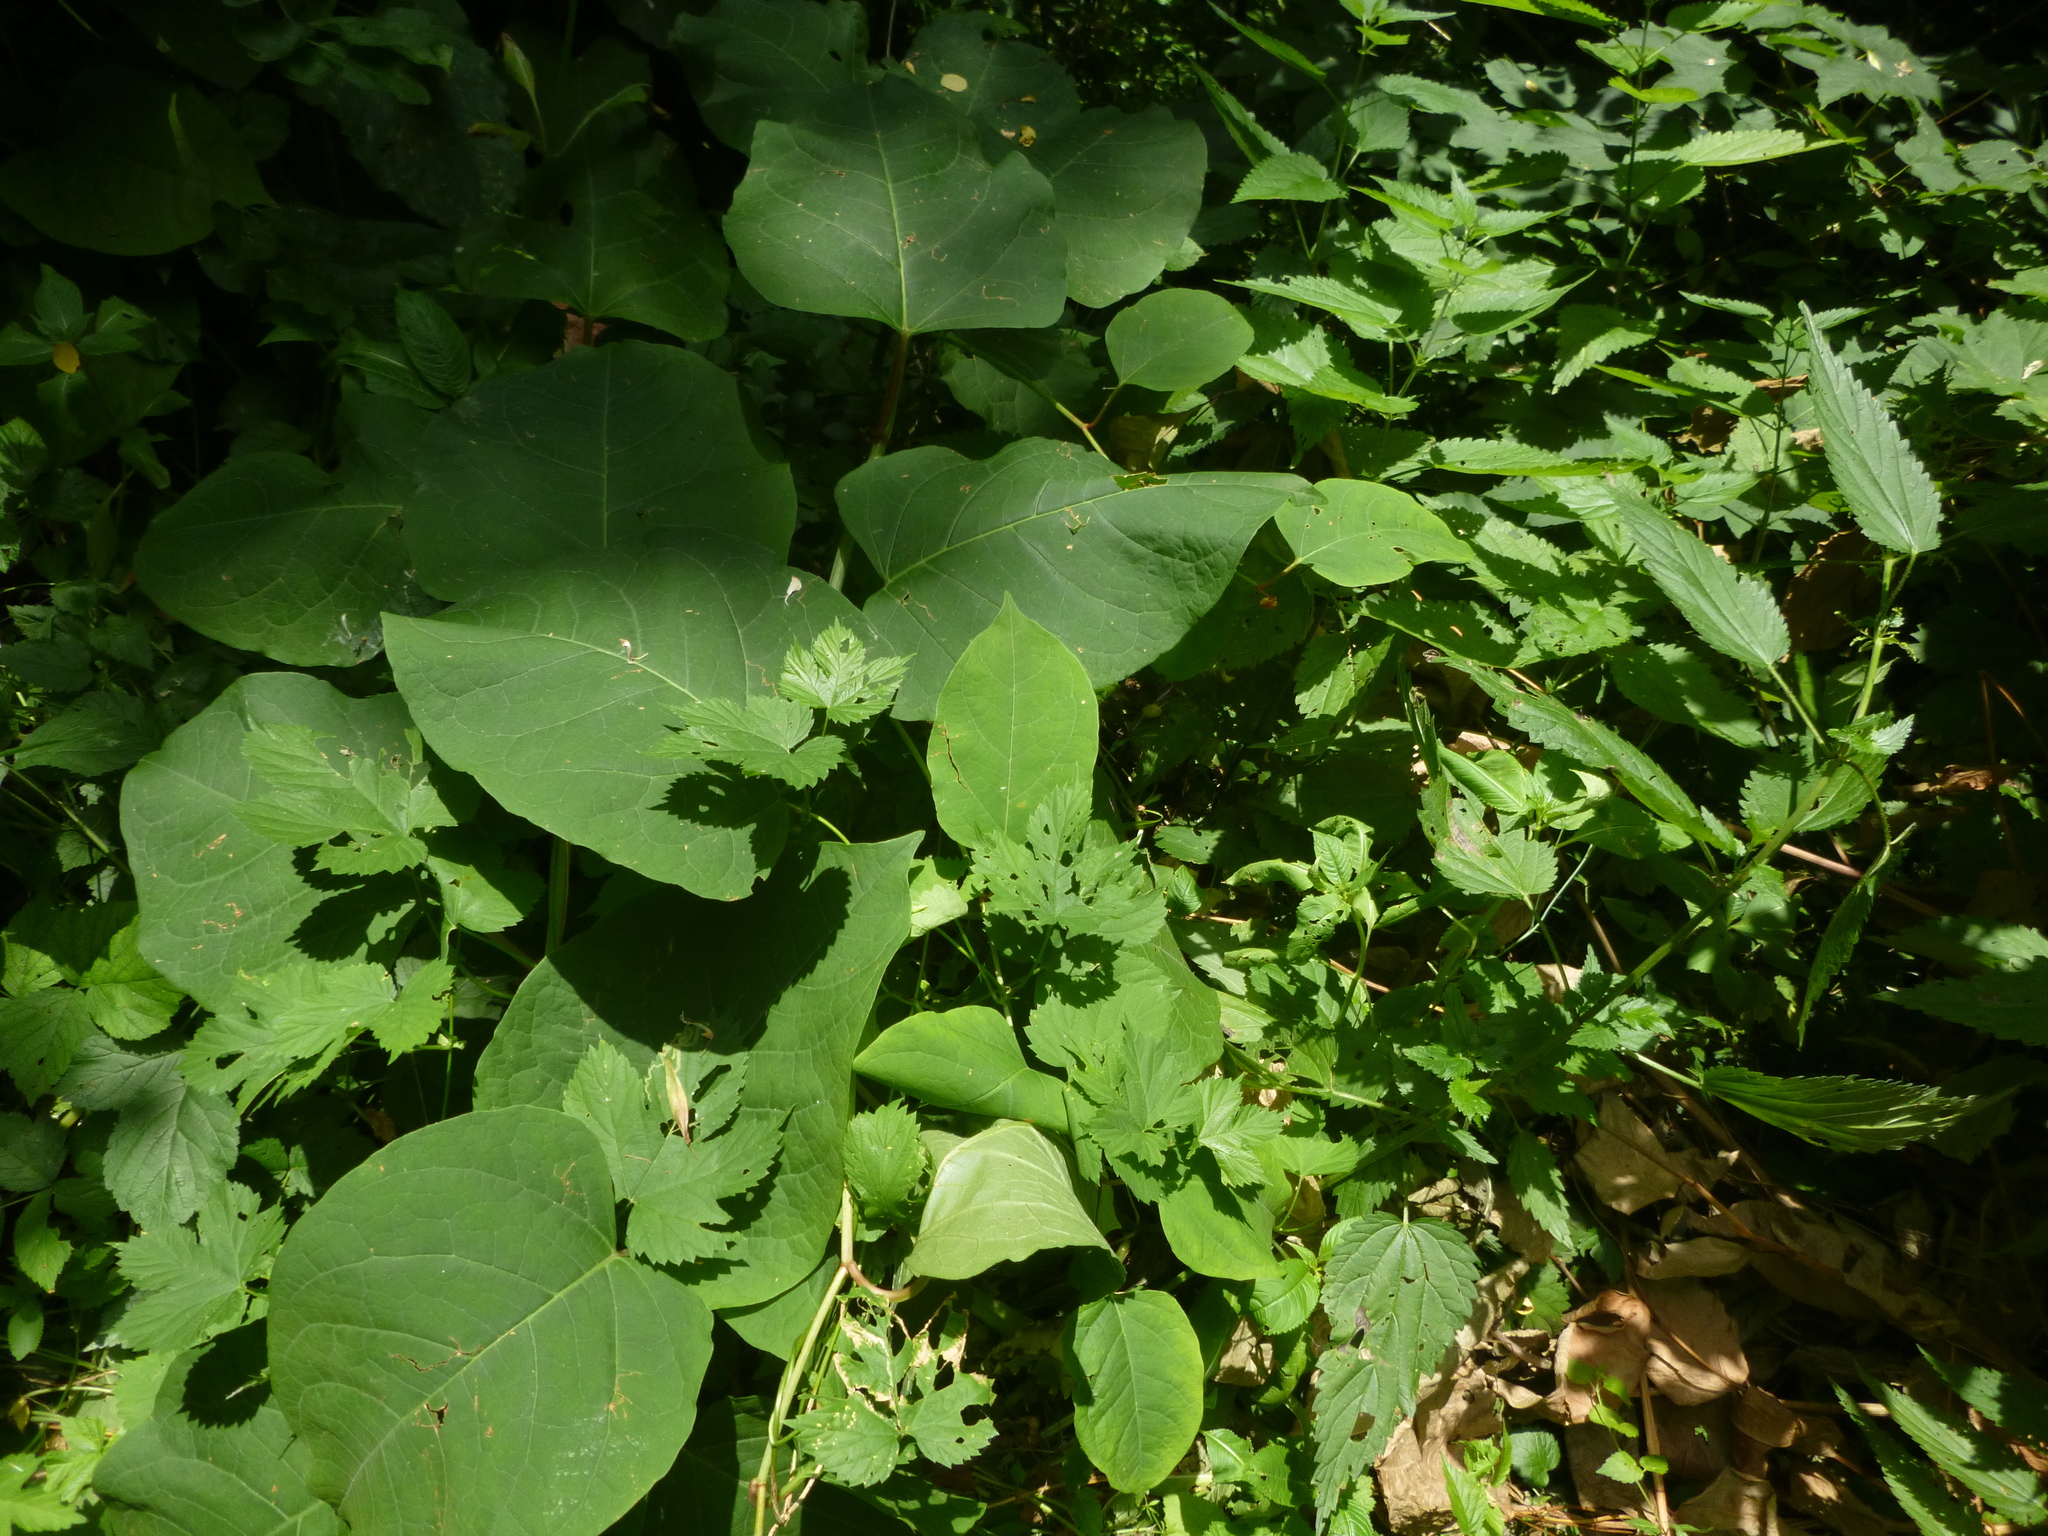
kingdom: Plantae
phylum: Tracheophyta
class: Magnoliopsida
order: Caryophyllales
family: Polygonaceae
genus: Reynoutria
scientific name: Reynoutria bohemica
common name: Bohemian knotweed
